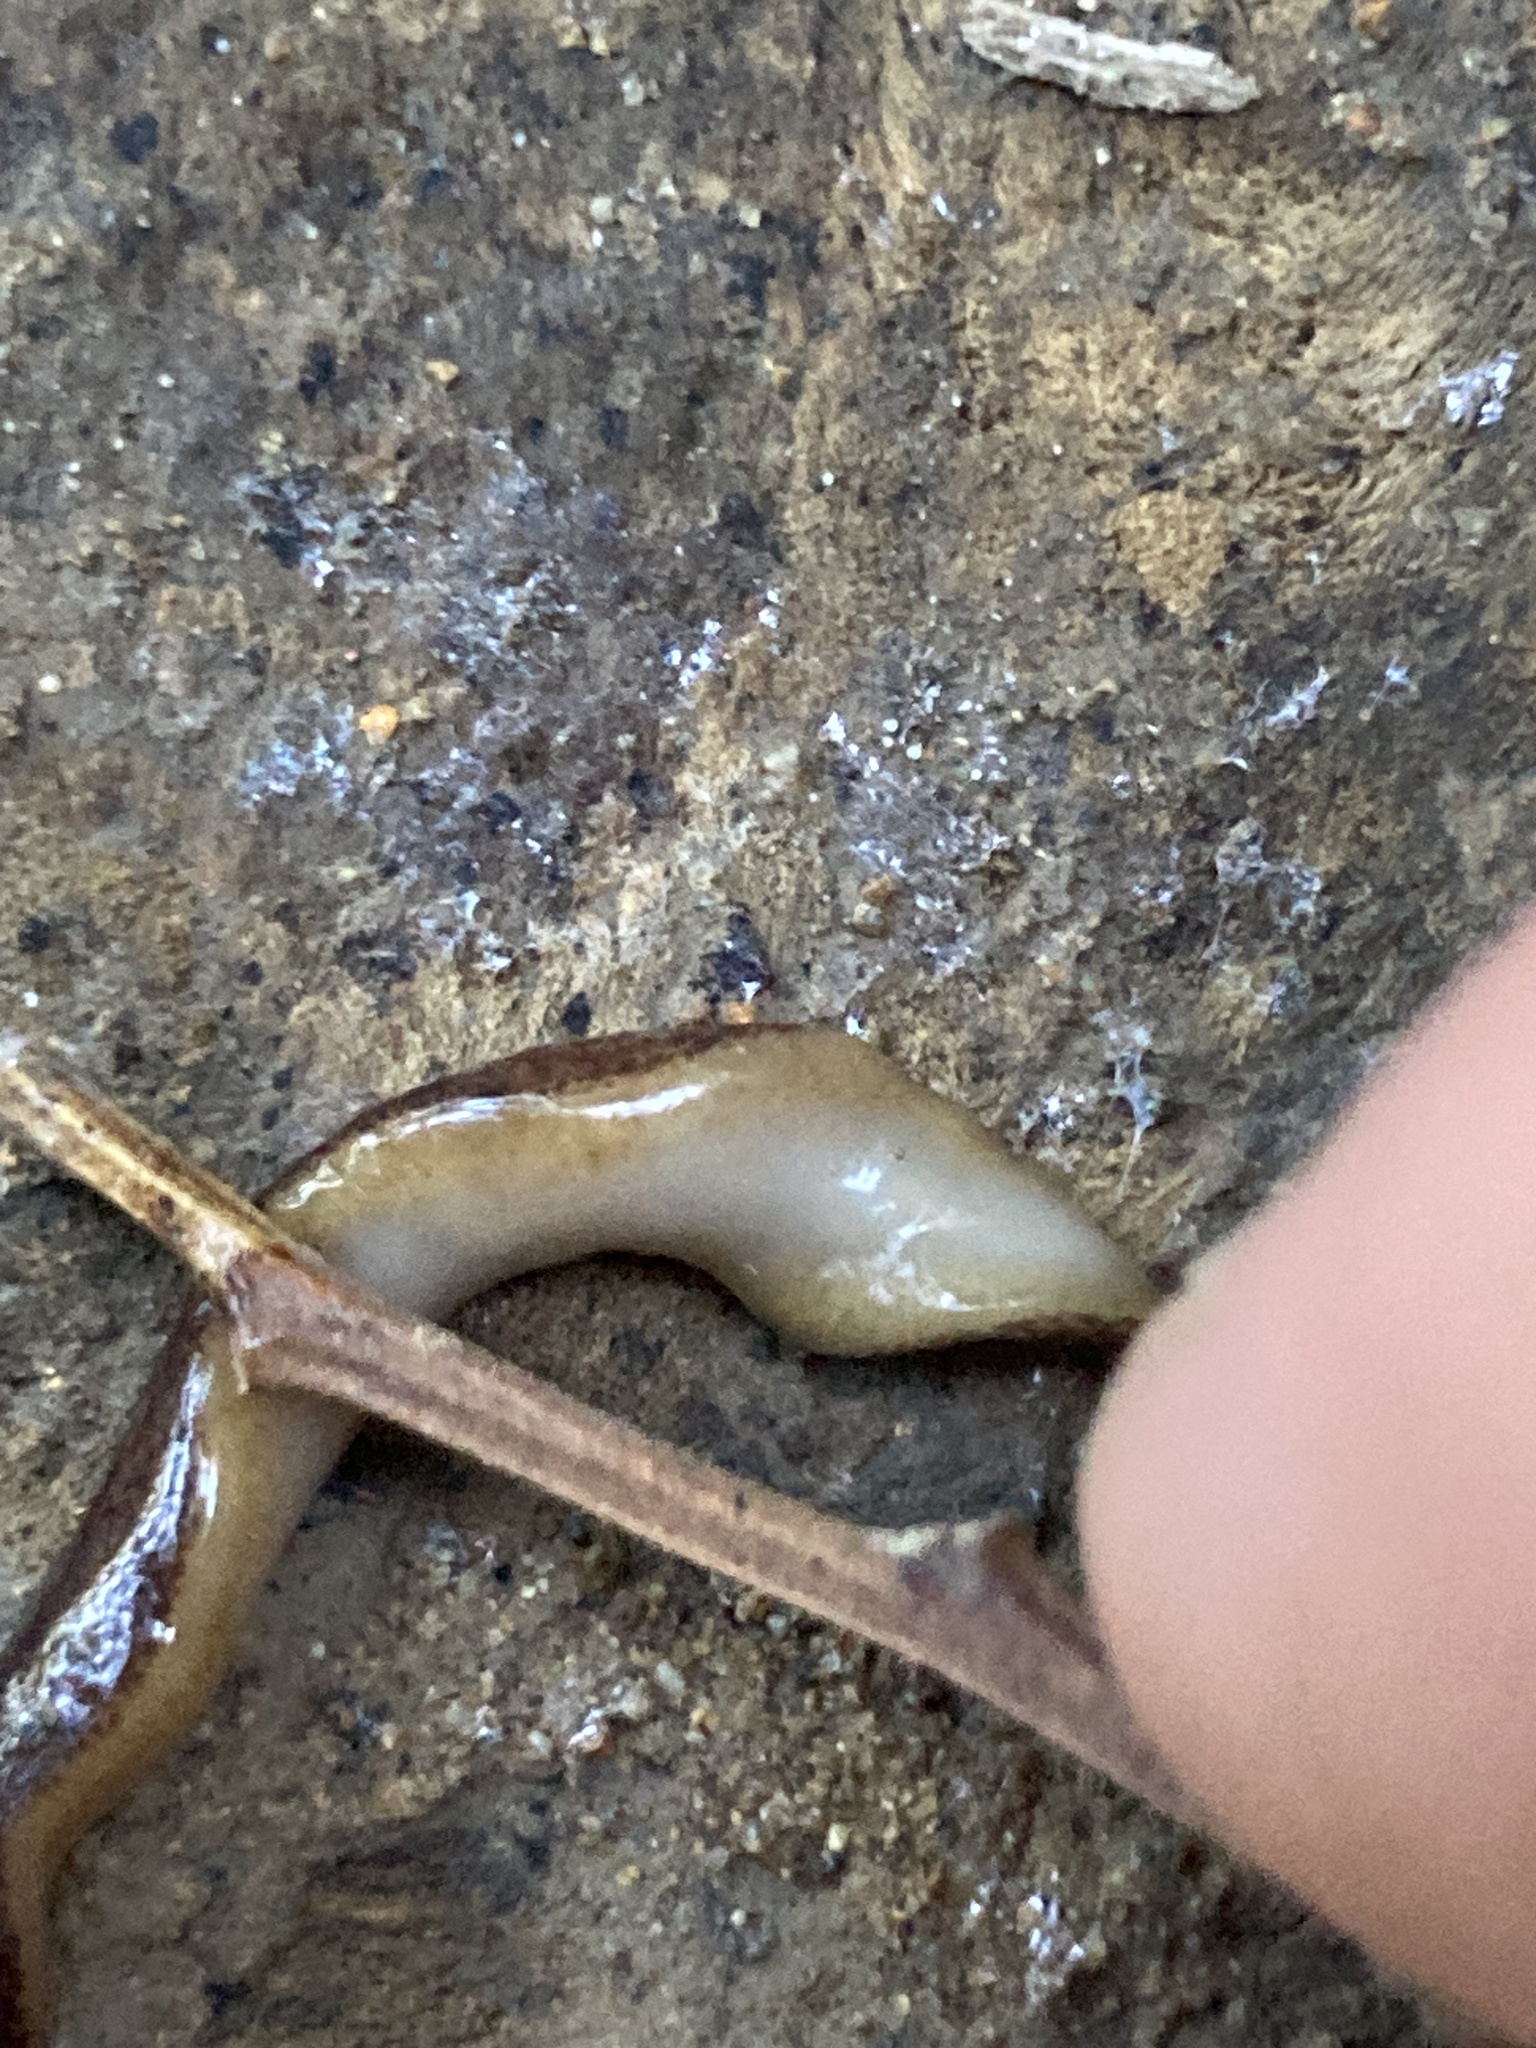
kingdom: Animalia
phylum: Platyhelminthes
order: Tricladida
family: Geoplanidae
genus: Reomkago
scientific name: Reomkago quadrangulatus
